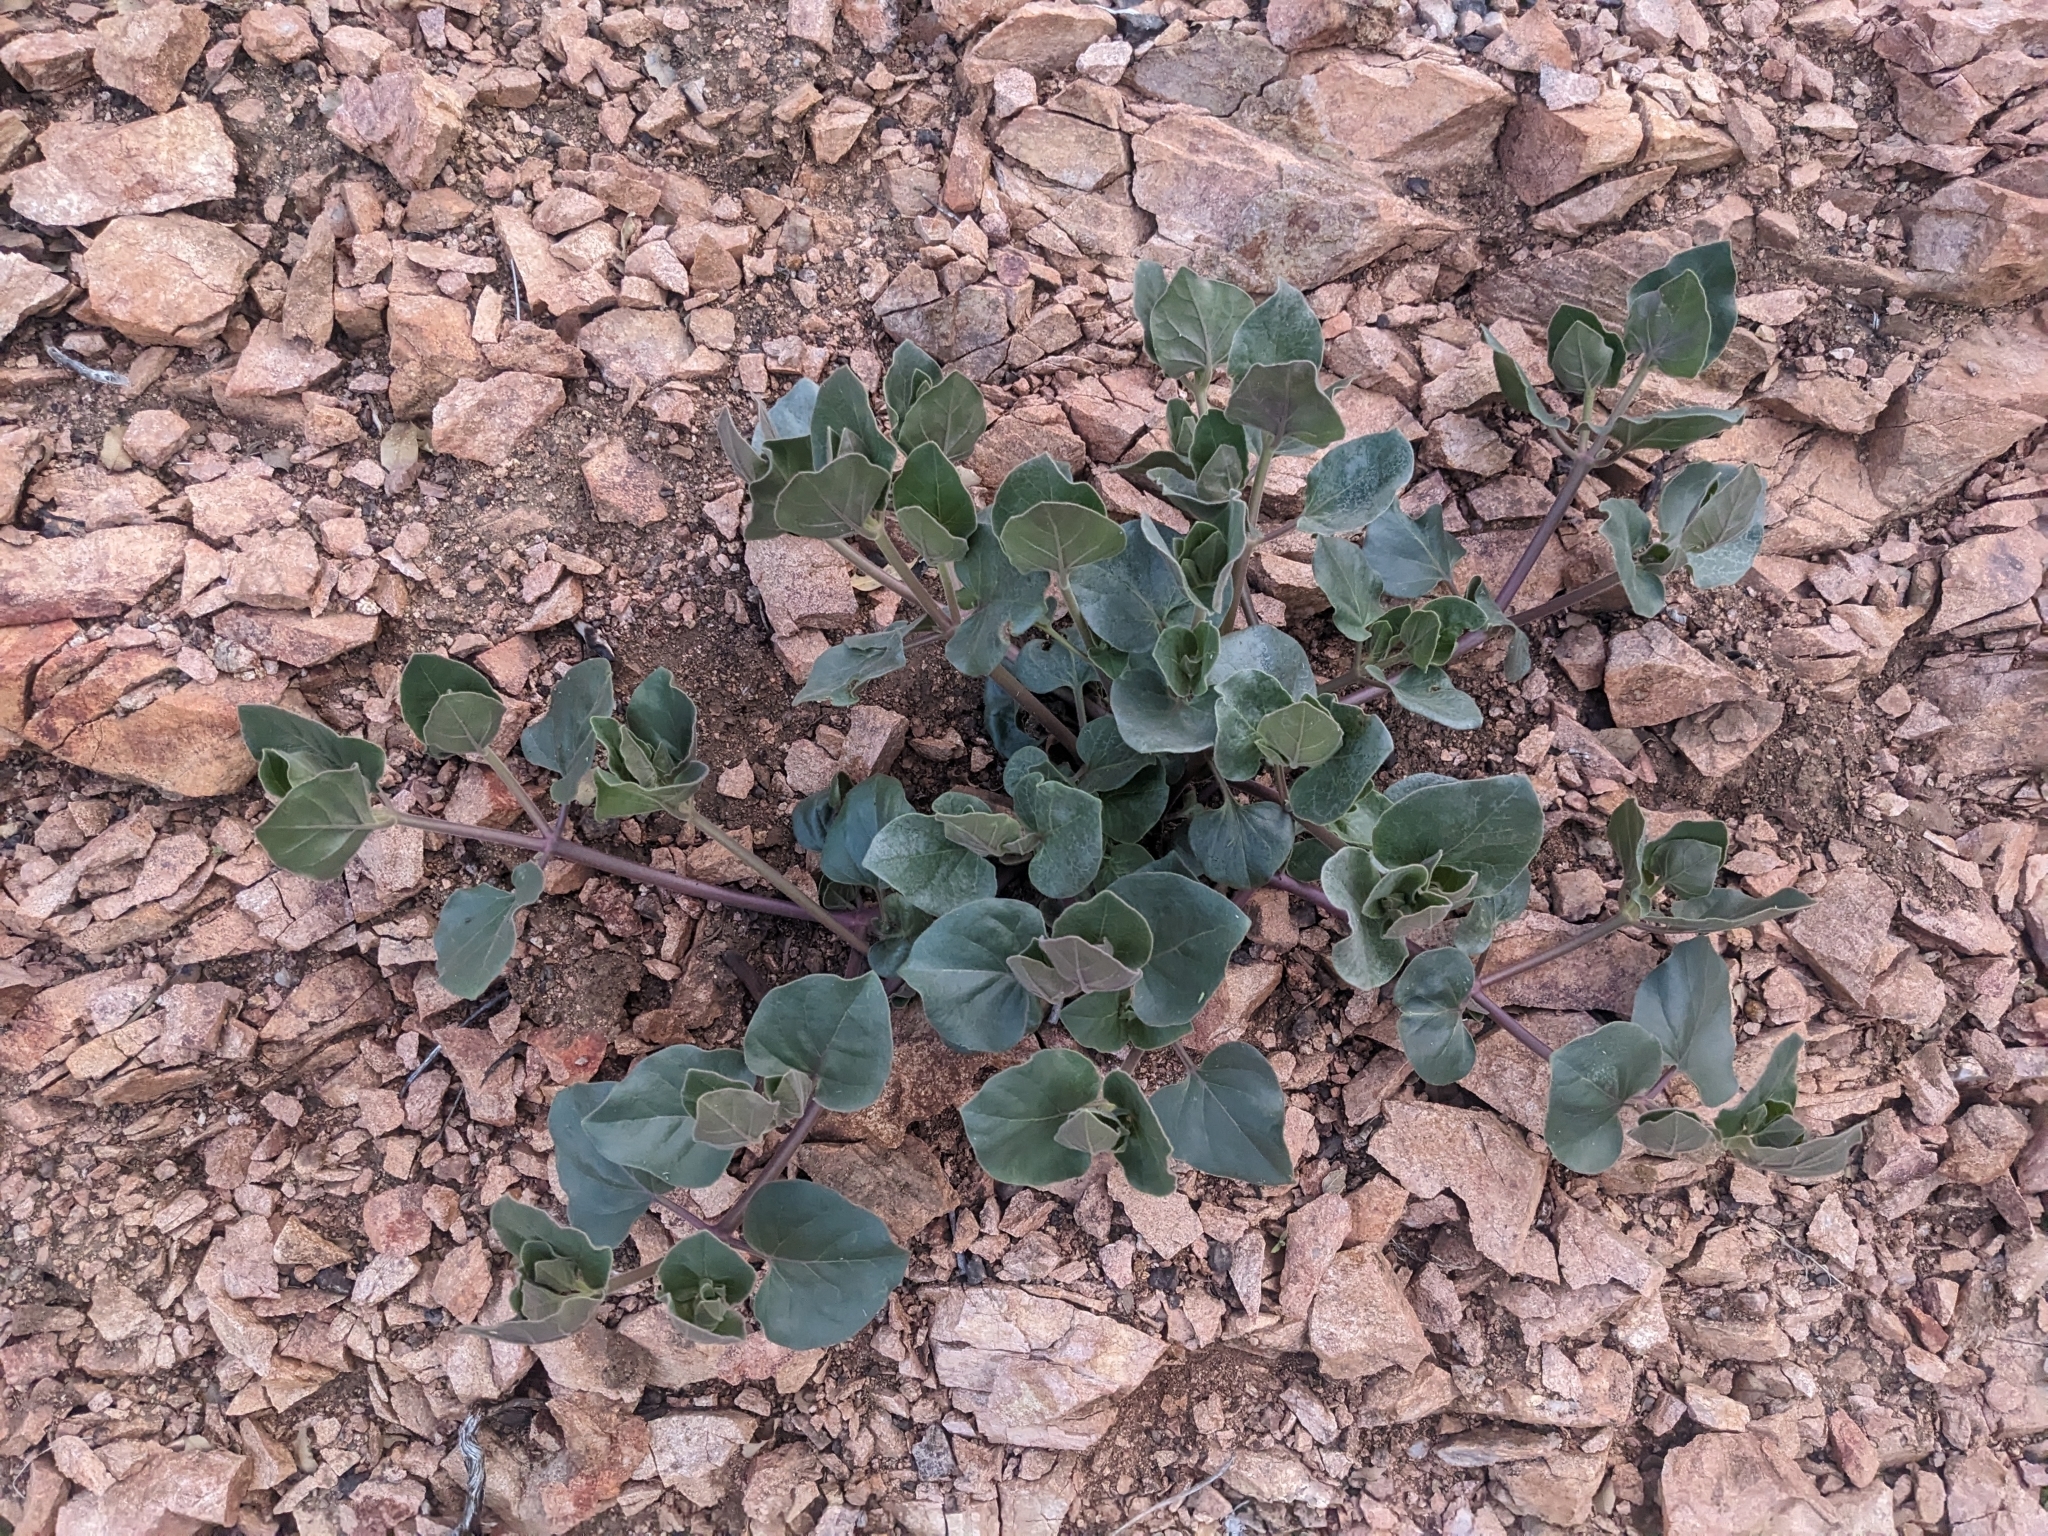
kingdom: Plantae
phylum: Tracheophyta
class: Magnoliopsida
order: Caryophyllales
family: Nyctaginaceae
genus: Mirabilis
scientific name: Mirabilis multiflora
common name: Froebel's four-o'clock
